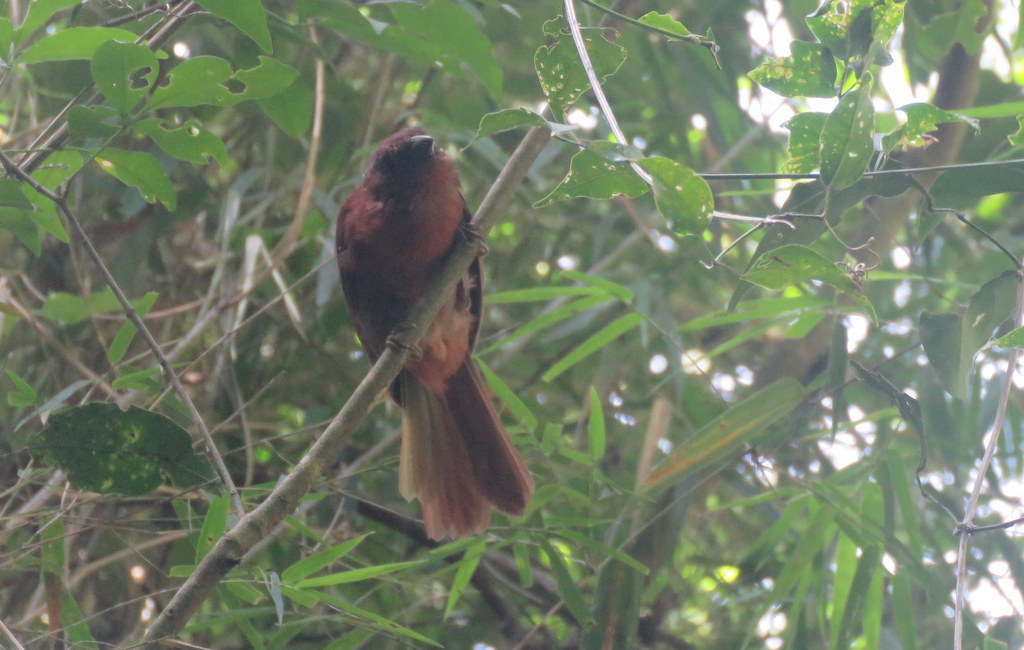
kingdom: Animalia
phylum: Chordata
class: Aves
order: Passeriformes
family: Cardinalidae
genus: Habia
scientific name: Habia rubica
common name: Red-crowned ant-tanager
